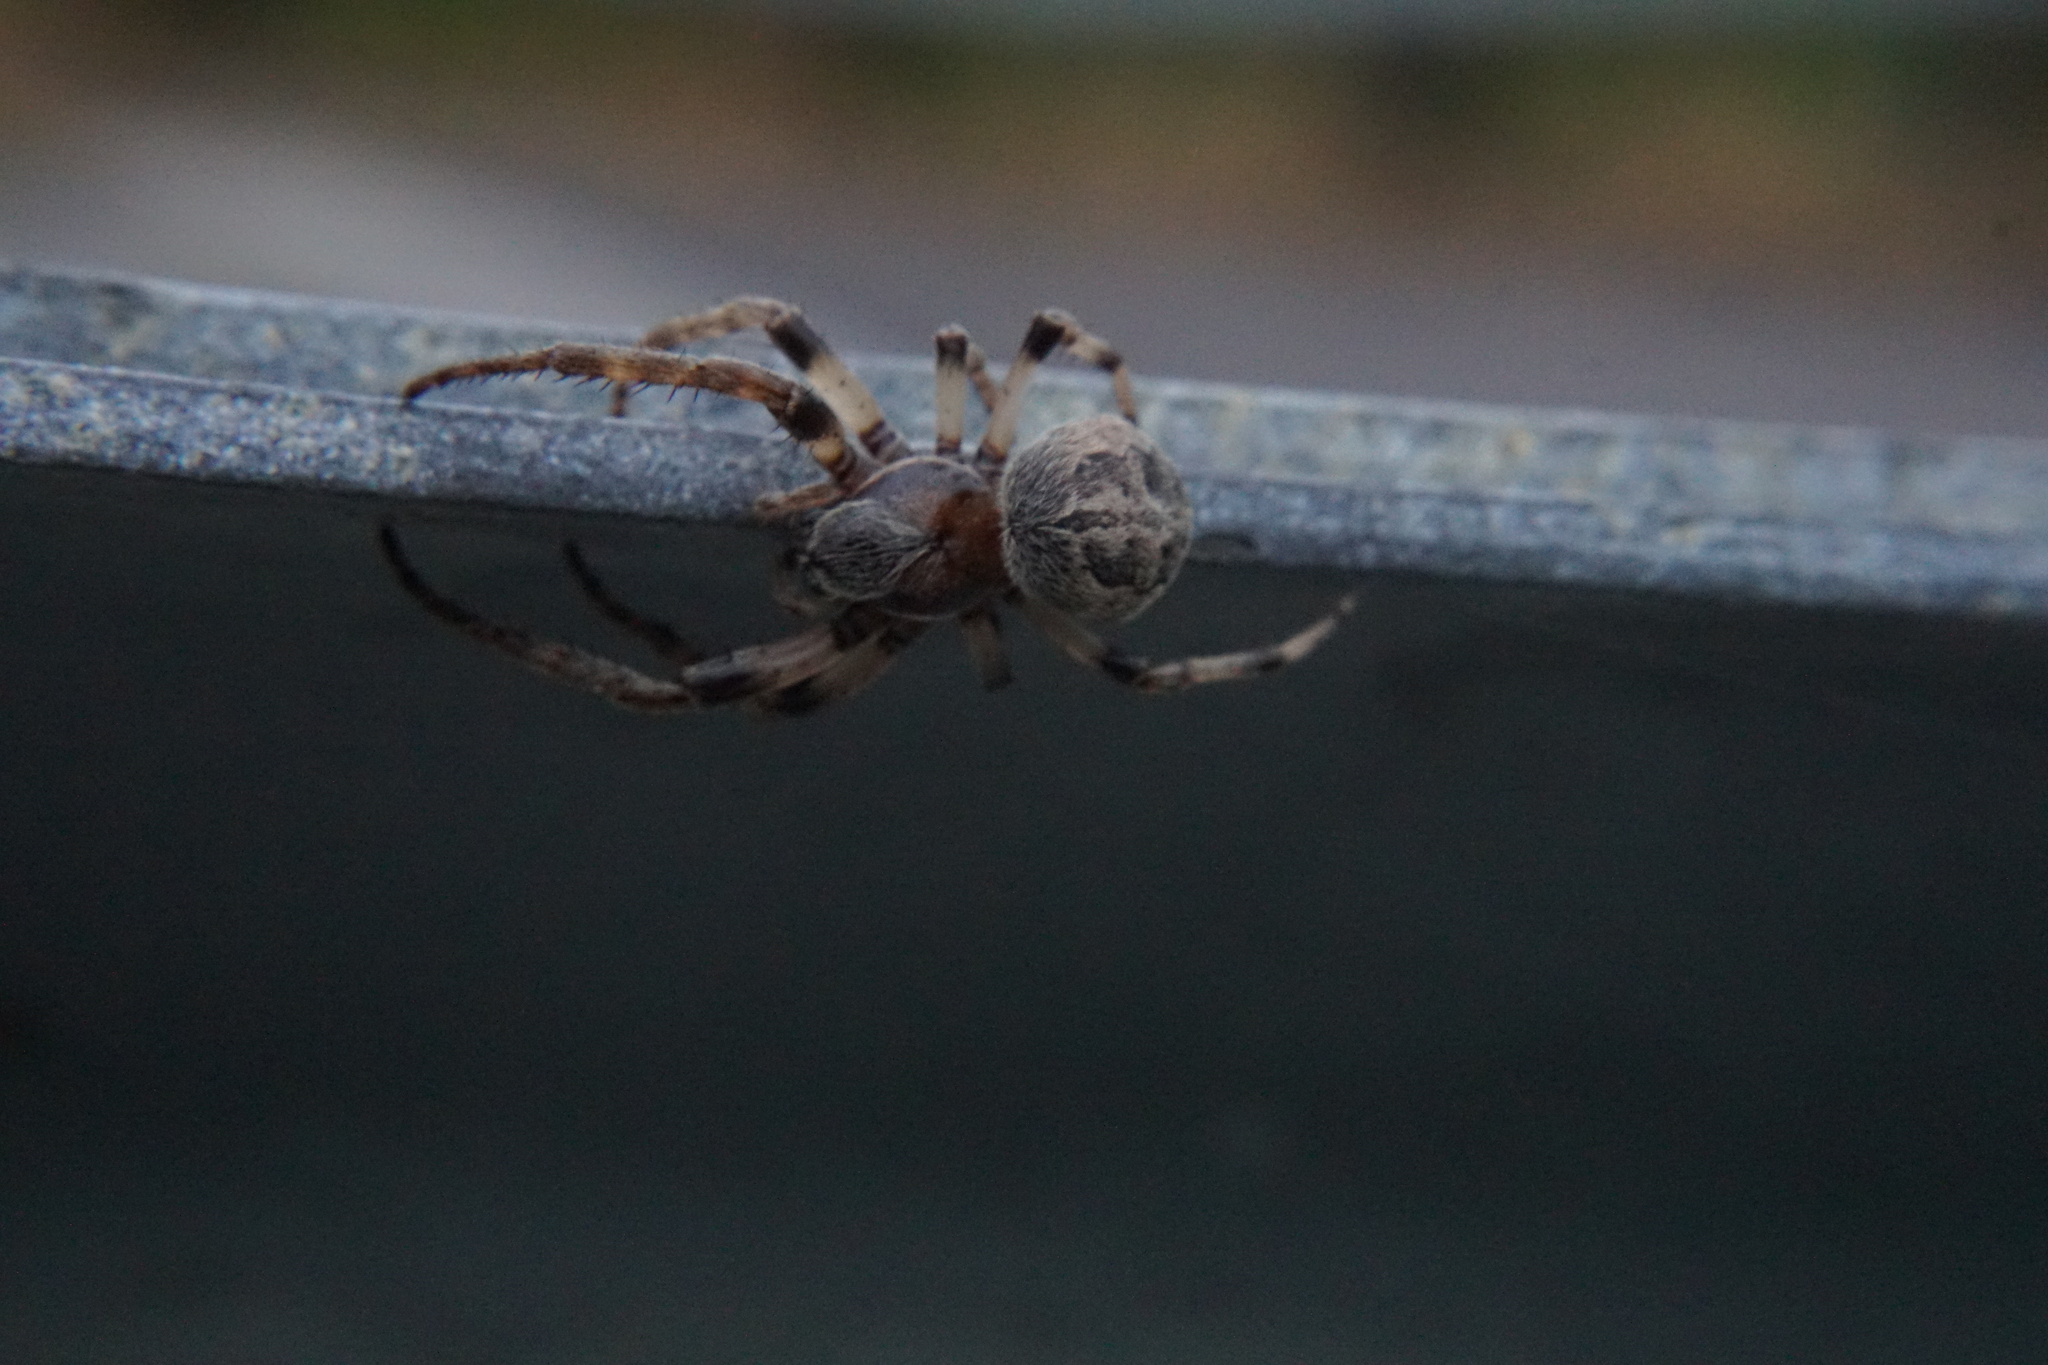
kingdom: Animalia
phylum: Arthropoda
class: Arachnida
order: Araneae
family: Araneidae
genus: Larinioides
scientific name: Larinioides cornutus
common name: Furrow orbweaver
